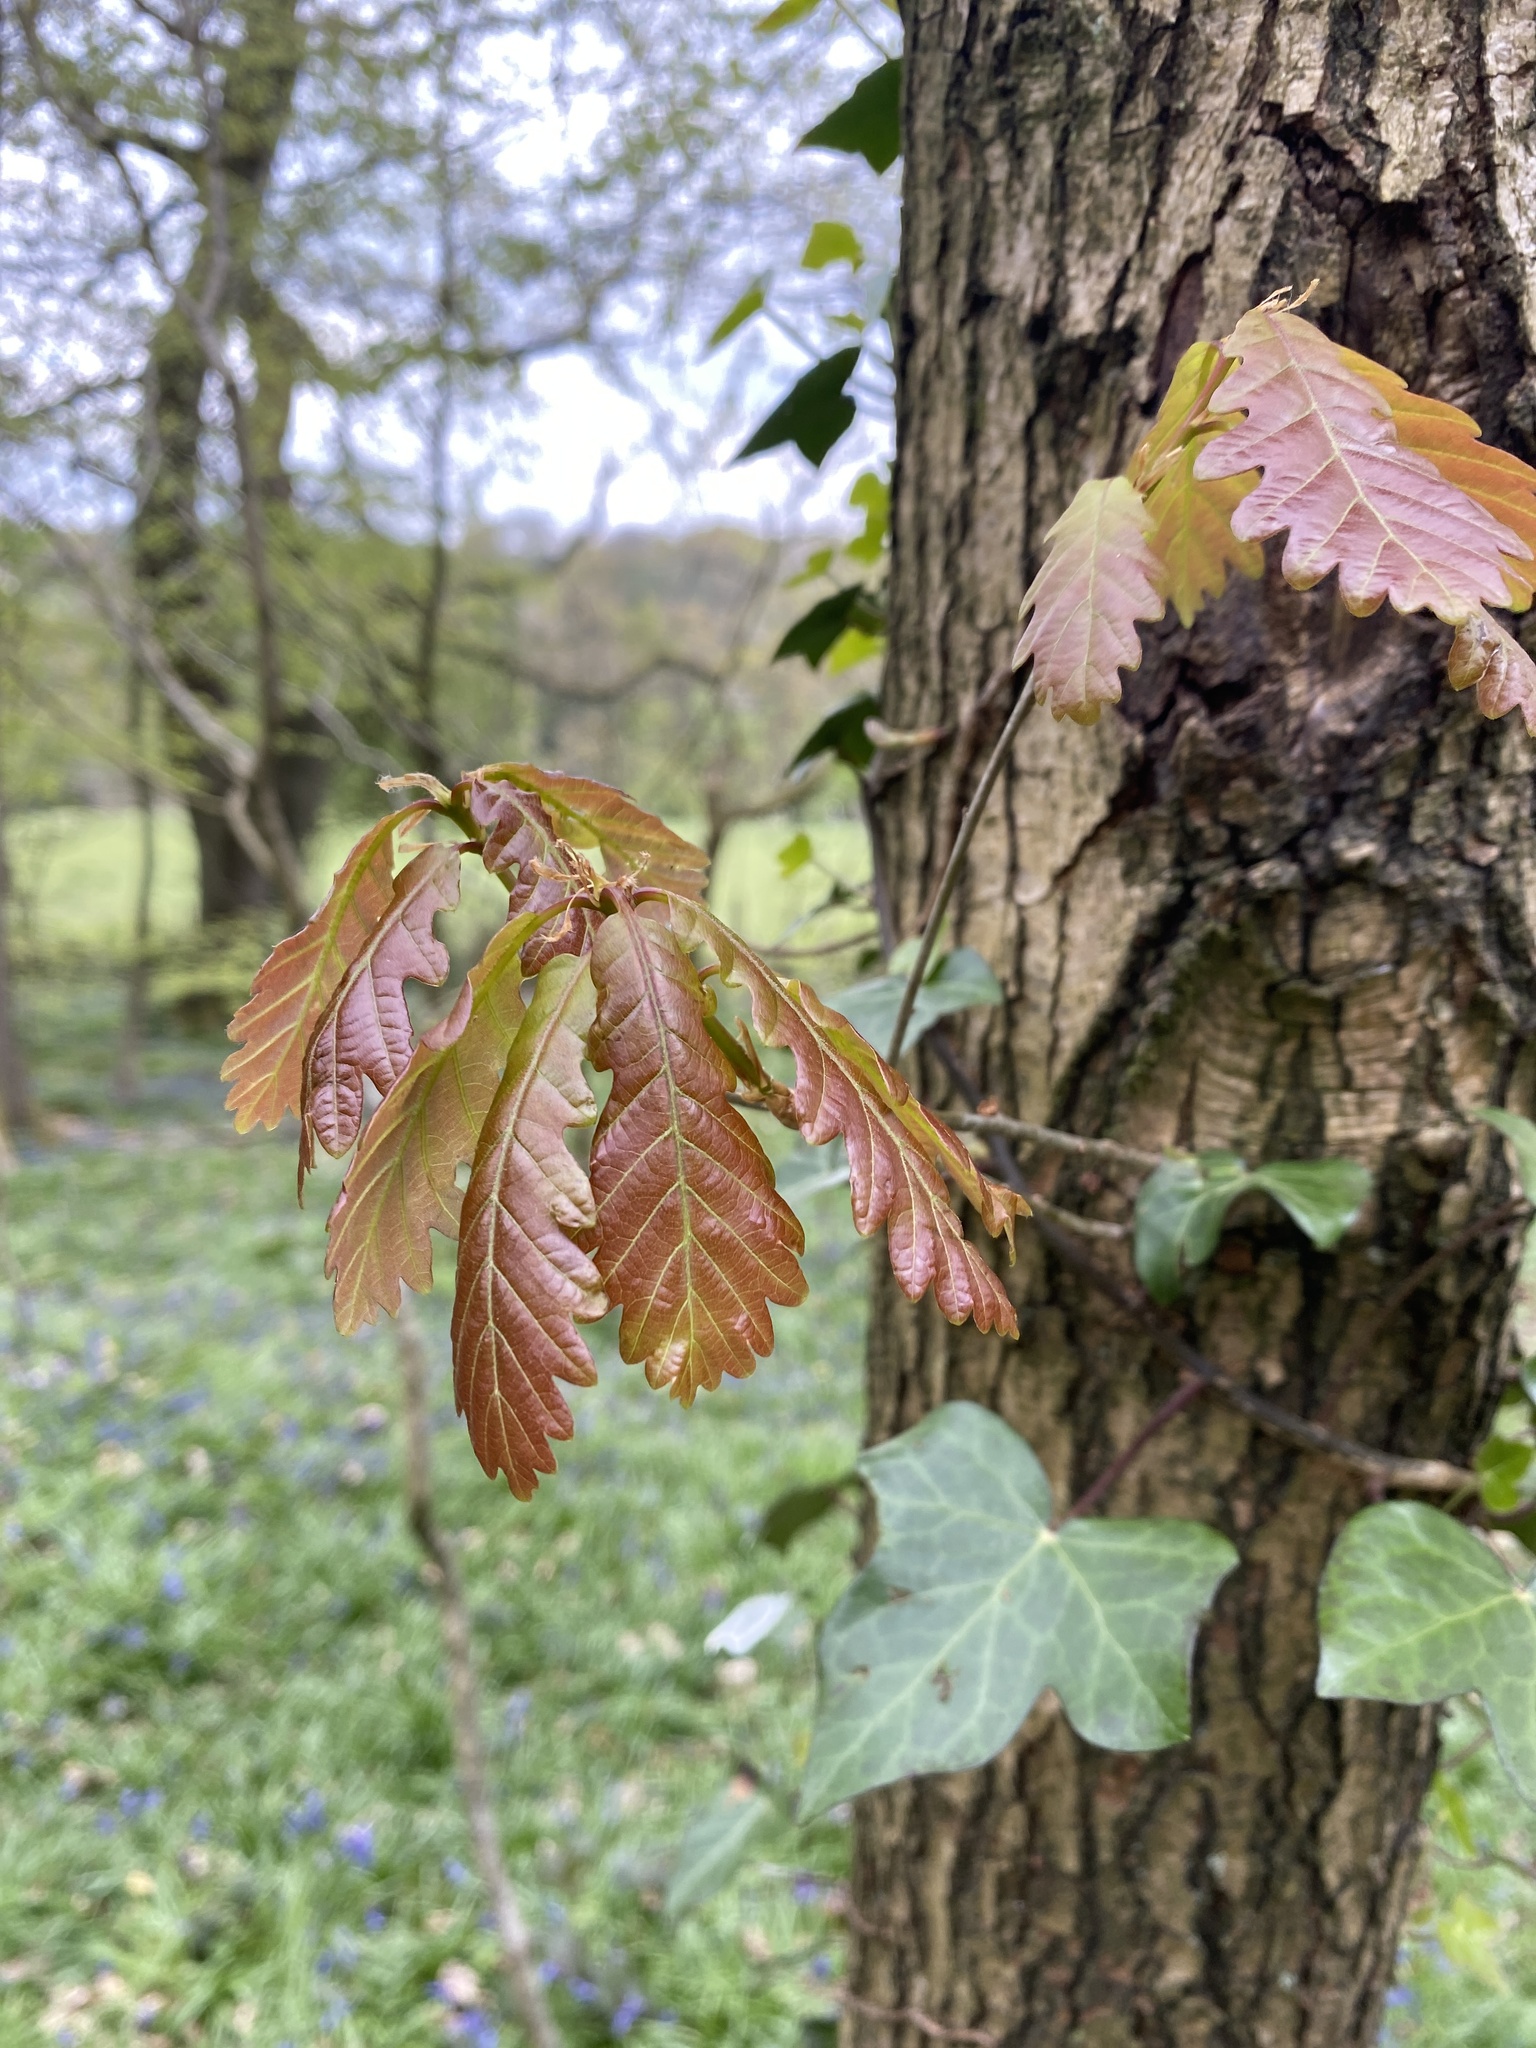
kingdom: Plantae
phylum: Tracheophyta
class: Magnoliopsida
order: Fagales
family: Fagaceae
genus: Quercus
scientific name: Quercus robur
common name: Pedunculate oak
